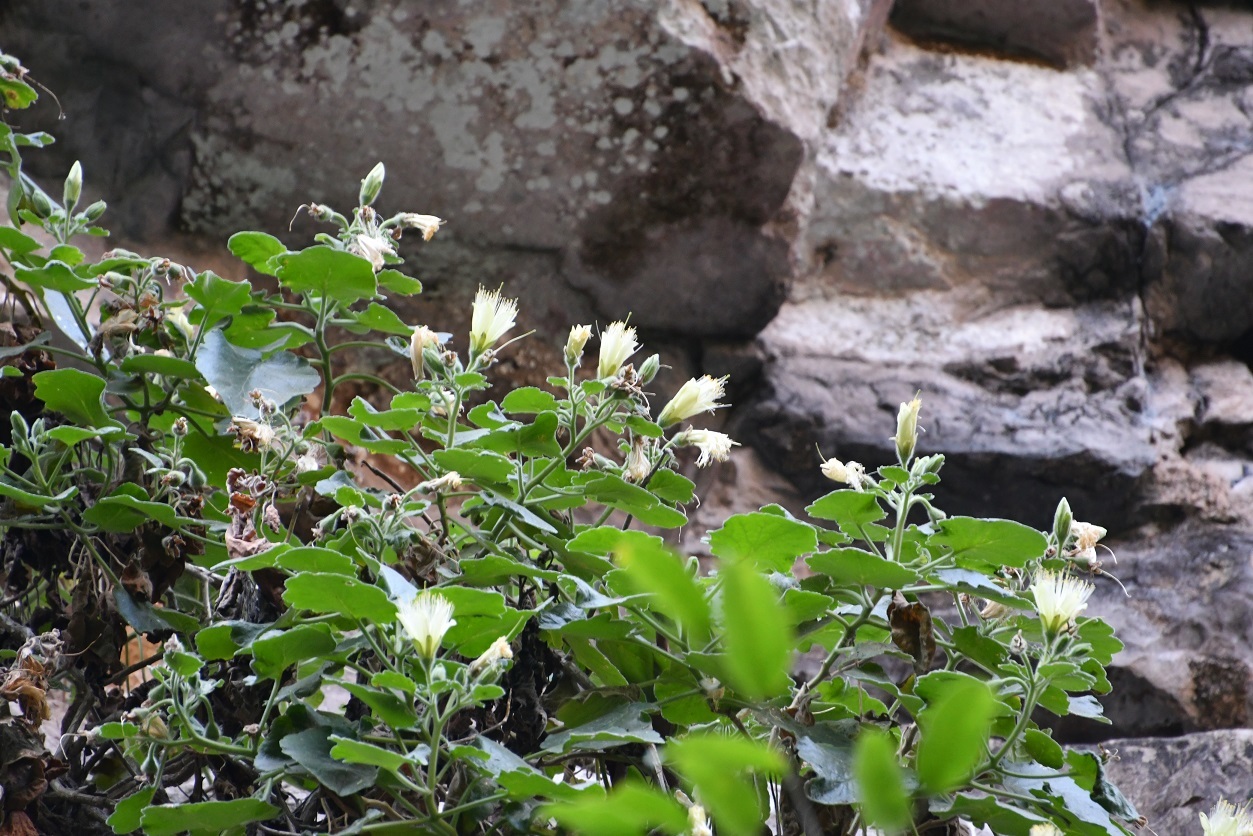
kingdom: Plantae
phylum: Tracheophyta
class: Magnoliopsida
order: Cornales
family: Loasaceae
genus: Eucnide
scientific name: Eucnide chiapasana
